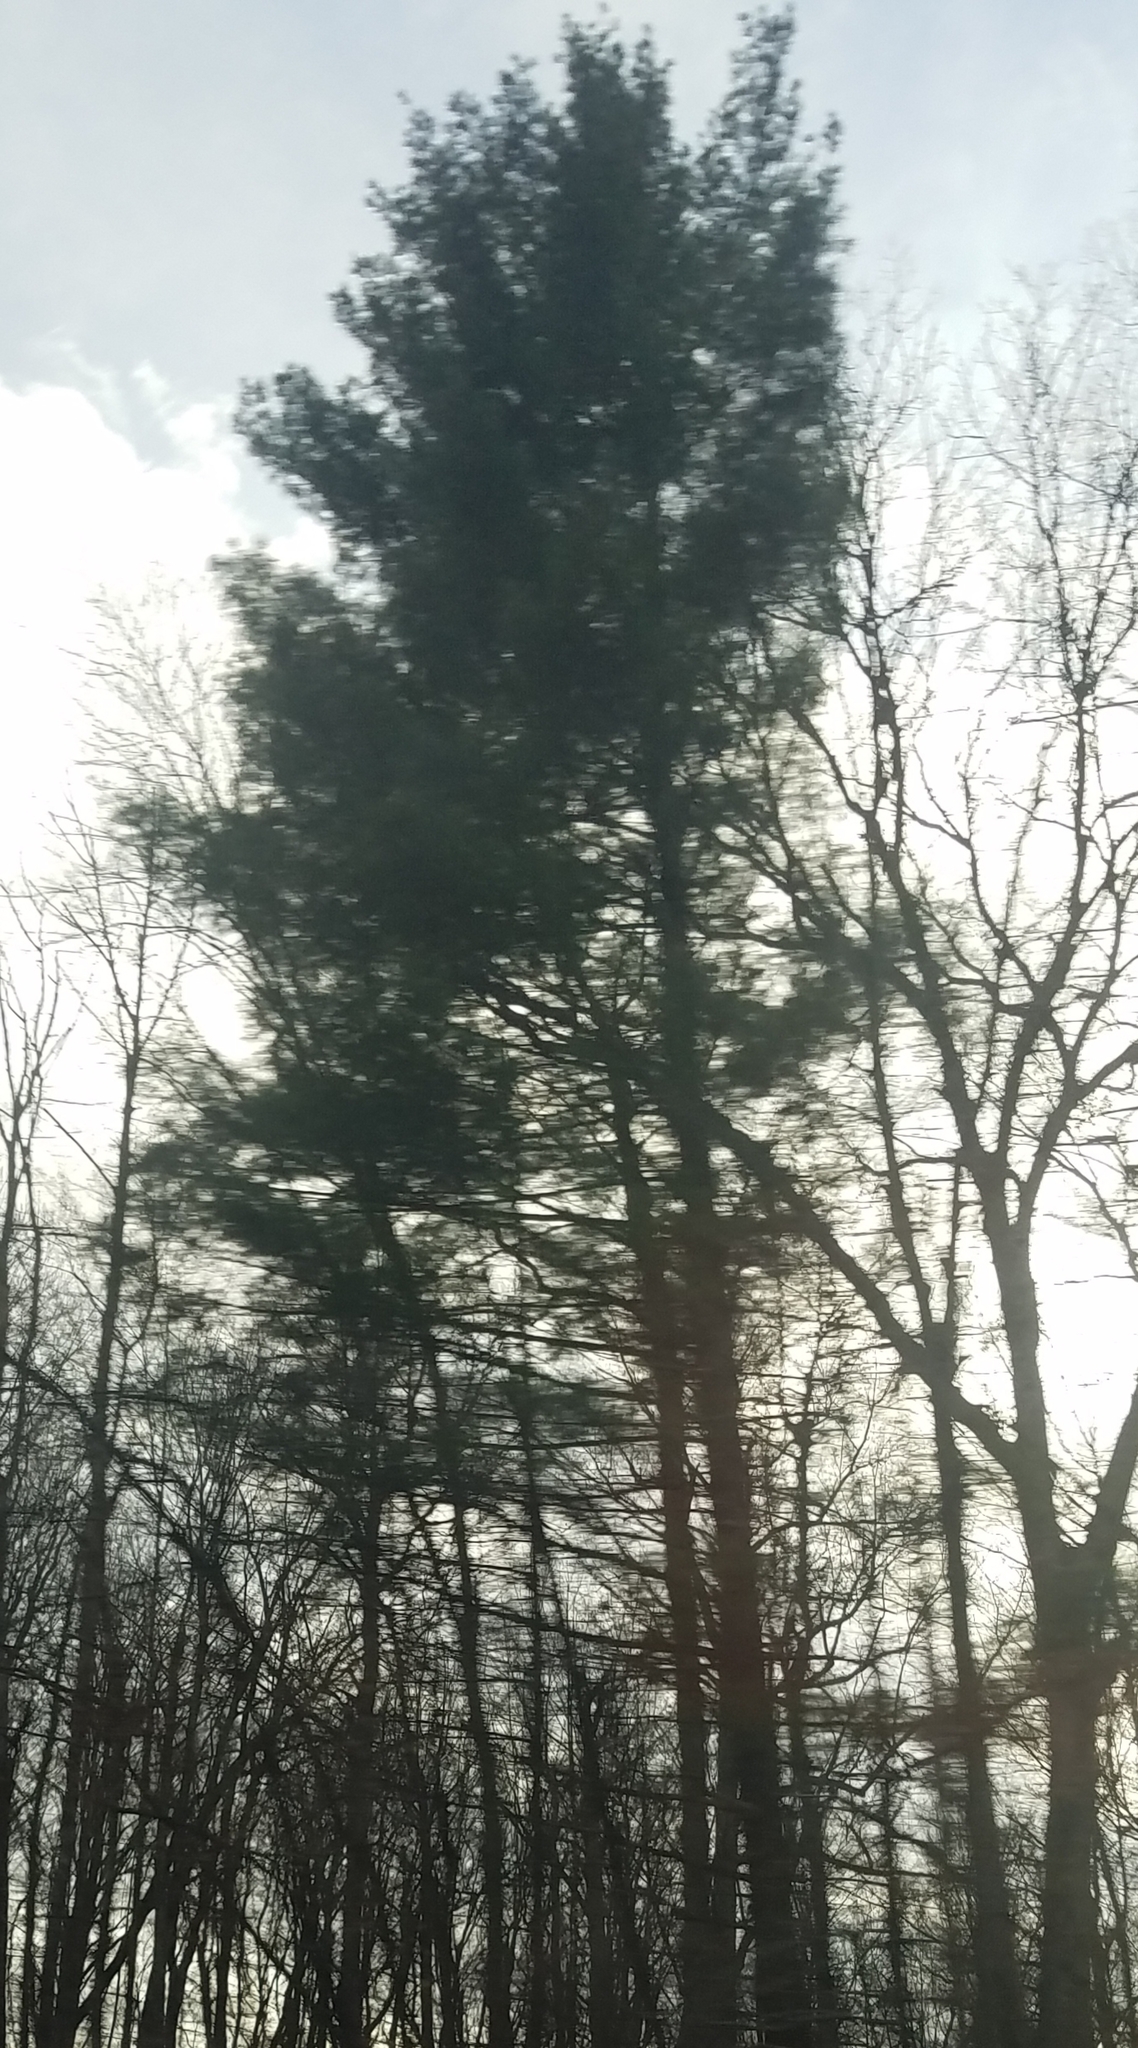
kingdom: Plantae
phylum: Tracheophyta
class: Pinopsida
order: Pinales
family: Pinaceae
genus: Pinus
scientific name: Pinus strobus
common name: Weymouth pine
